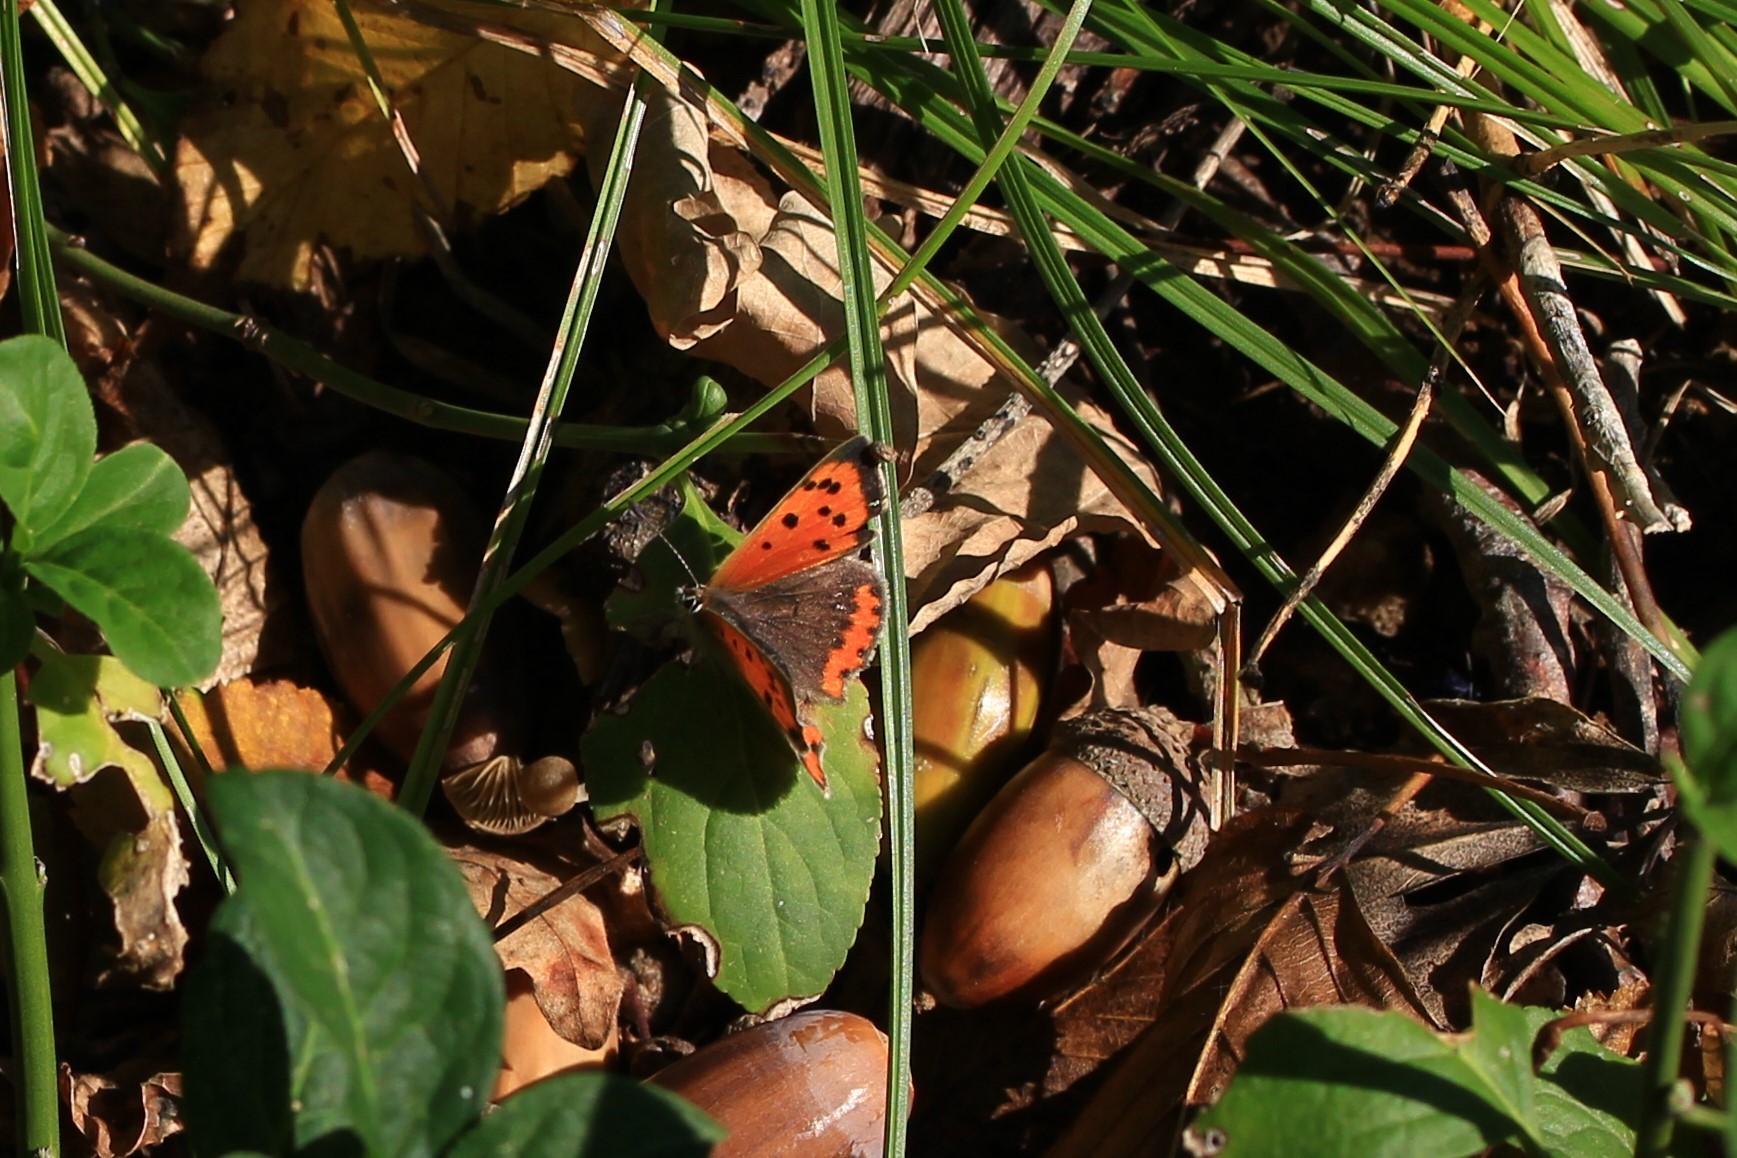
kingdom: Animalia
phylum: Arthropoda
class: Insecta
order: Lepidoptera
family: Lycaenidae
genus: Lycaena
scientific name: Lycaena phlaeas
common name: Small copper
